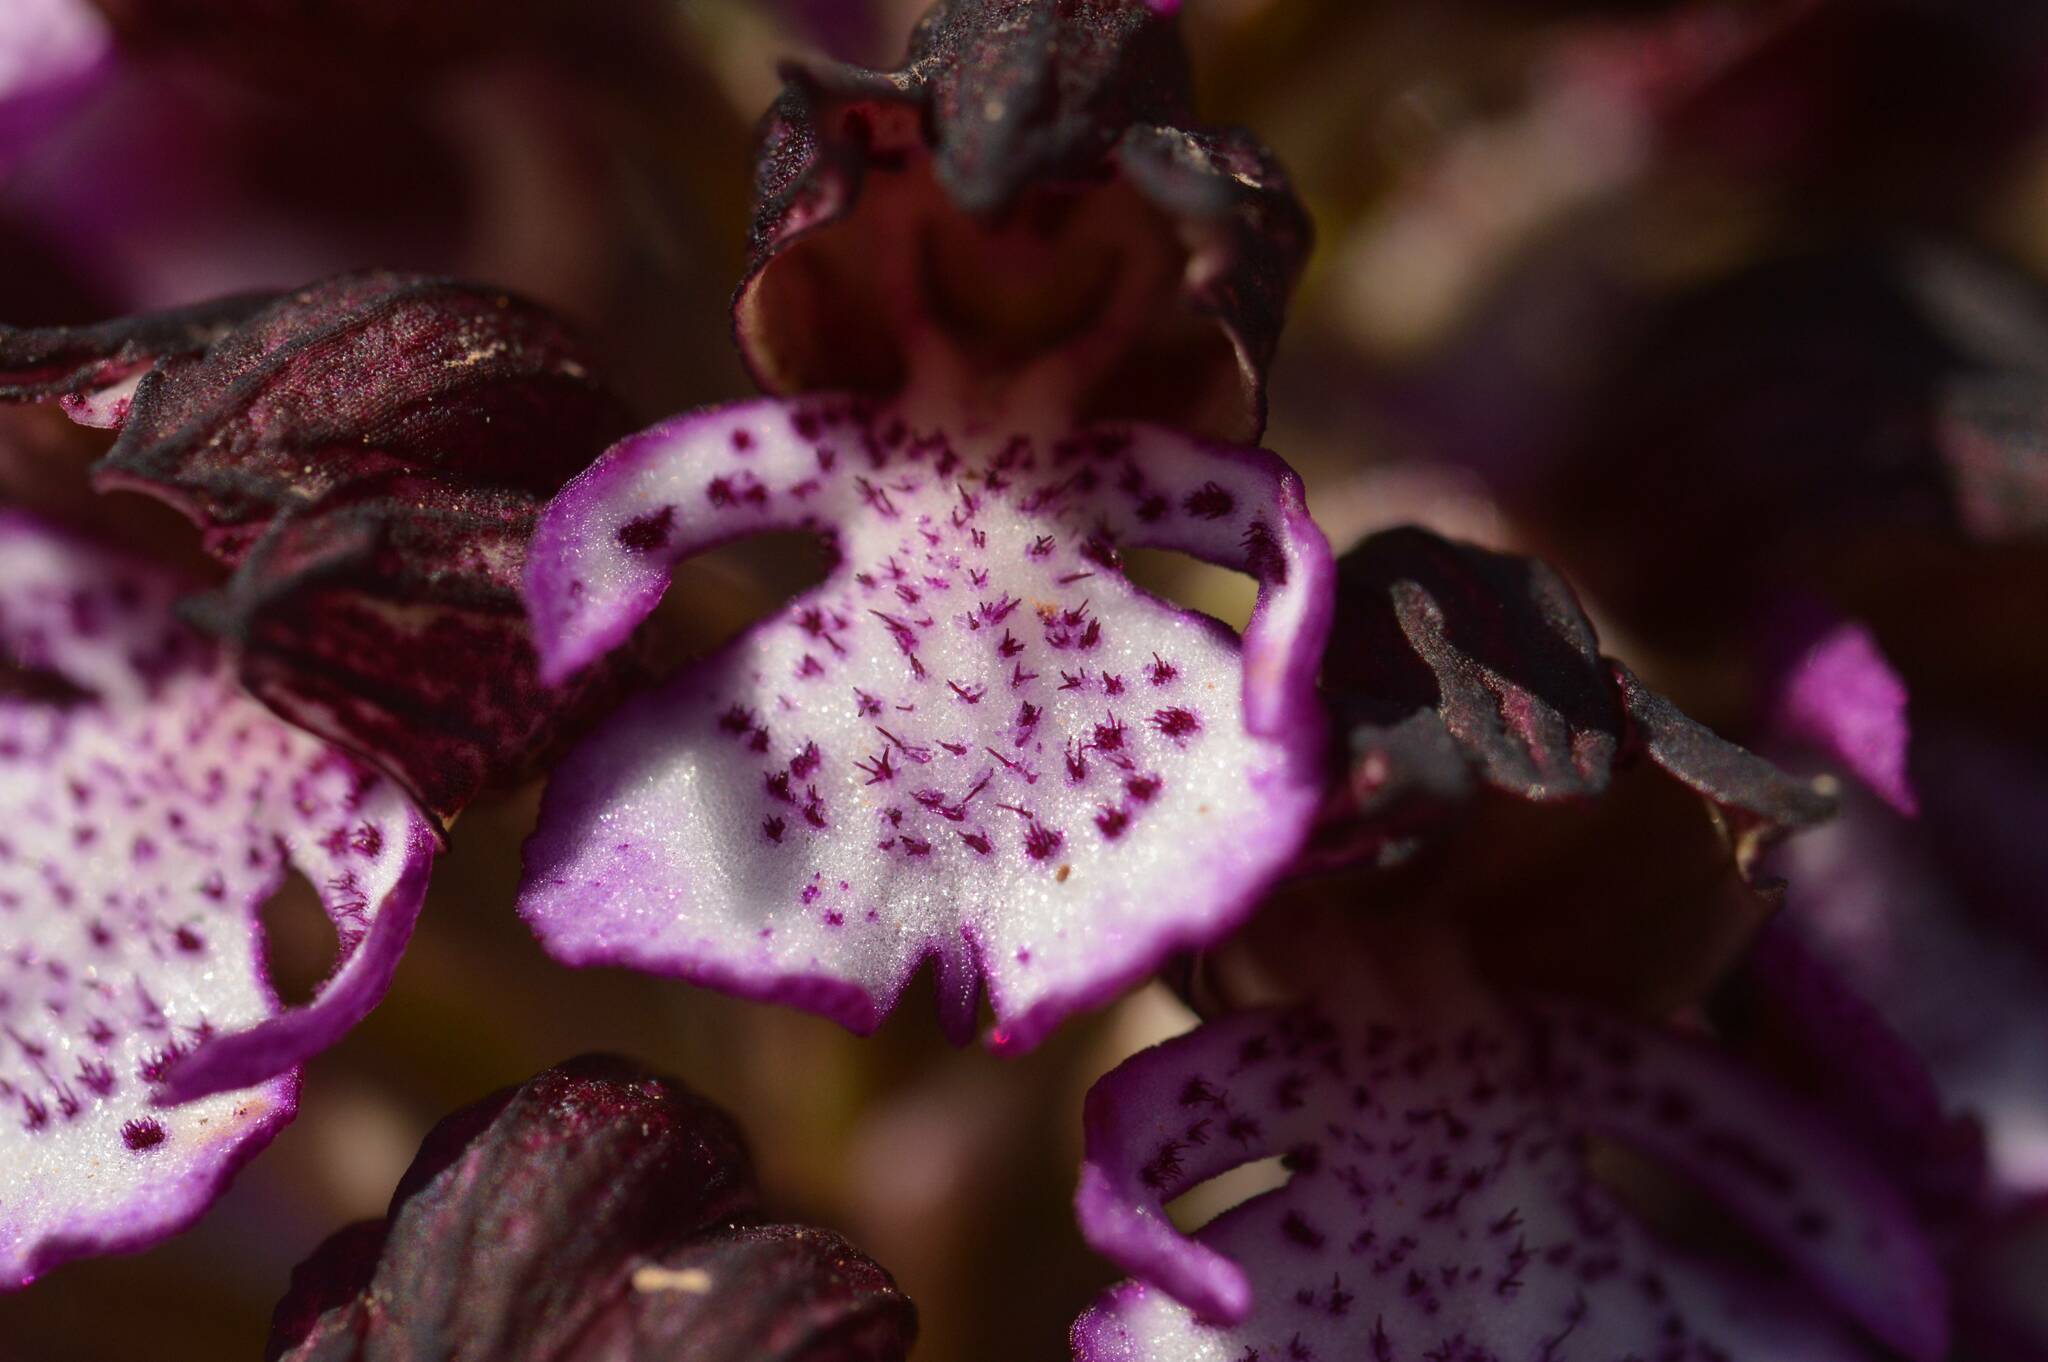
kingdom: Plantae
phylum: Tracheophyta
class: Liliopsida
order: Asparagales
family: Orchidaceae
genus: Orchis
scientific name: Orchis purpurea
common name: Lady orchid
